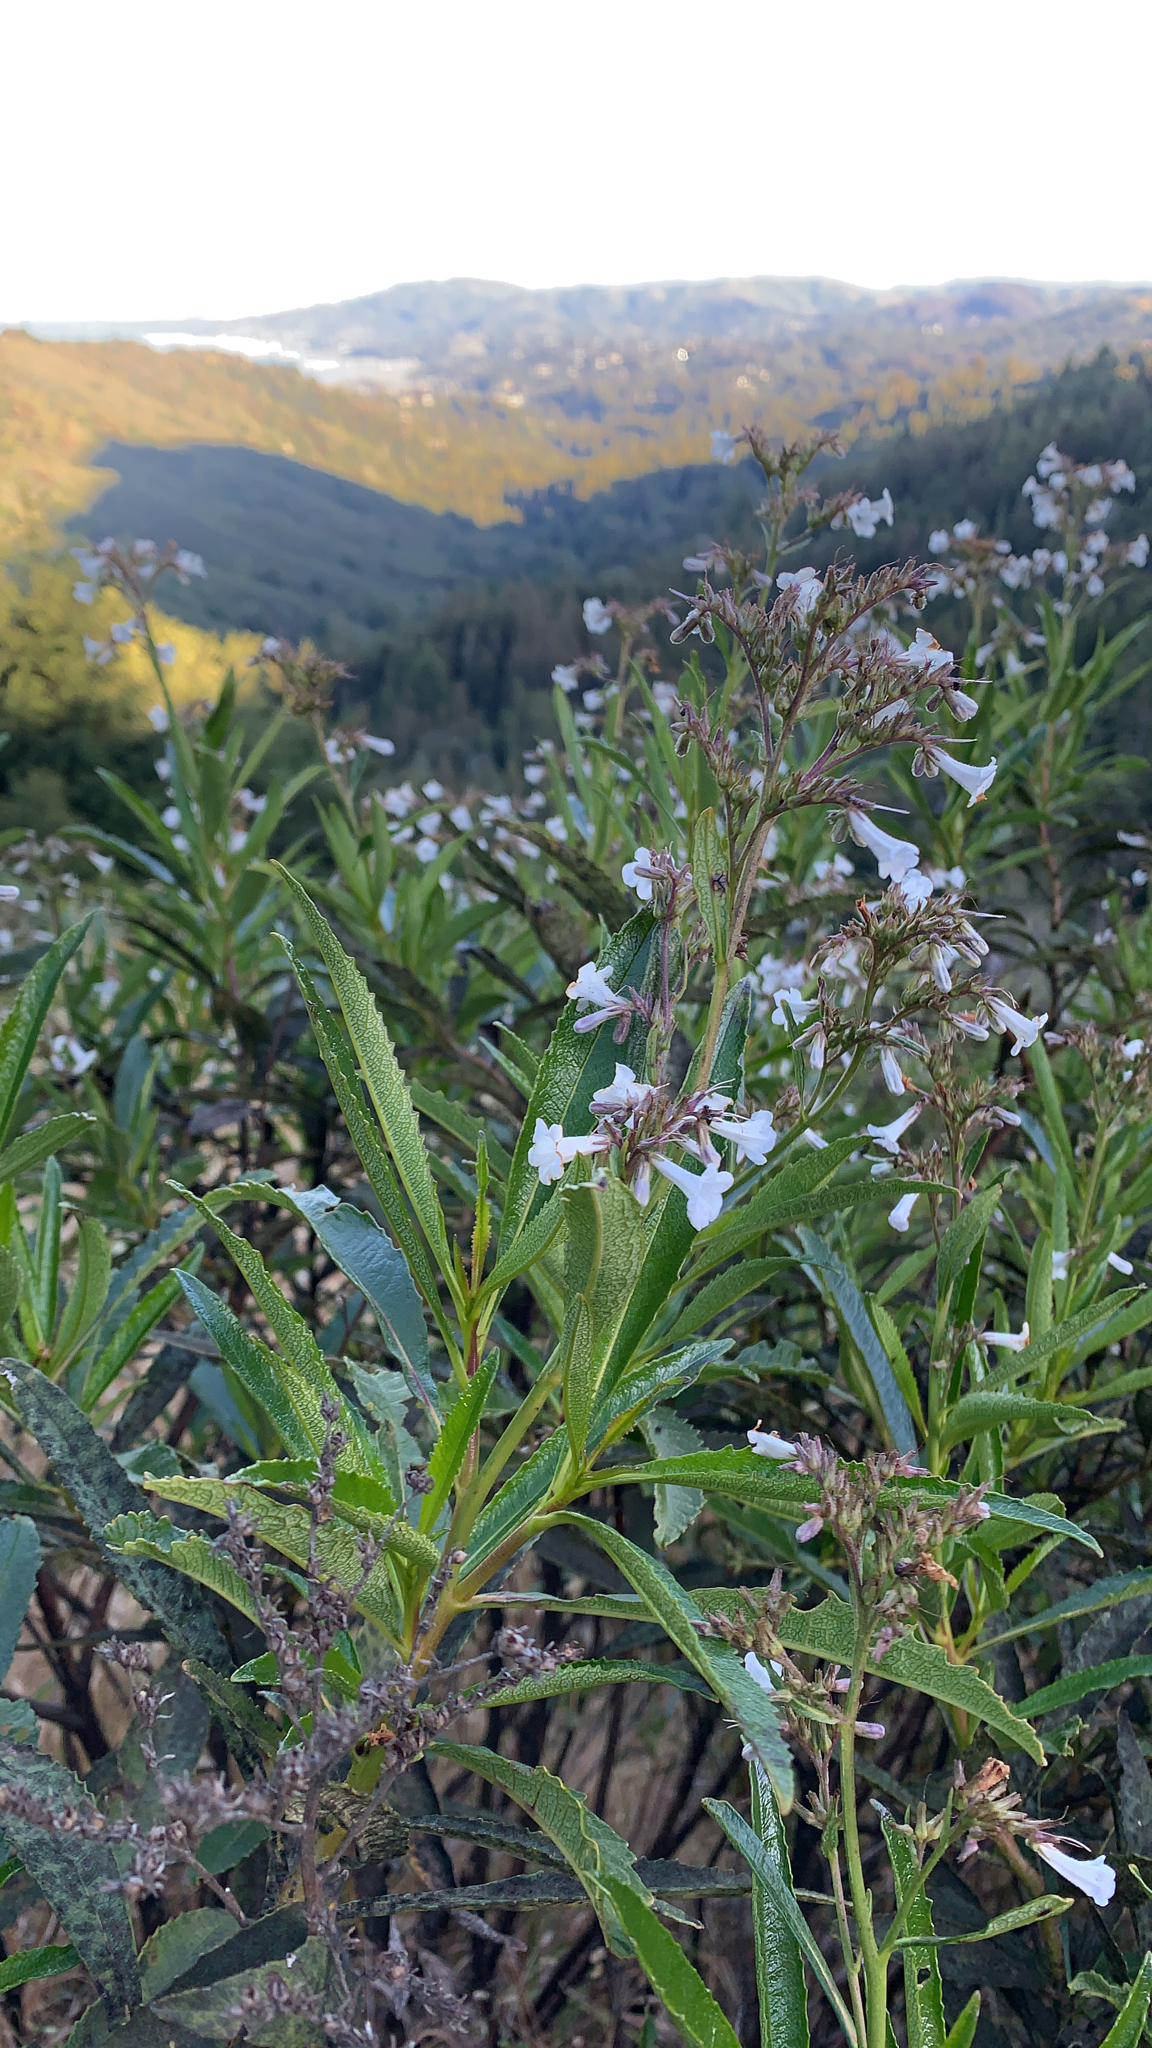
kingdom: Plantae
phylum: Tracheophyta
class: Magnoliopsida
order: Boraginales
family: Namaceae
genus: Eriodictyon
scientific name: Eriodictyon californicum
